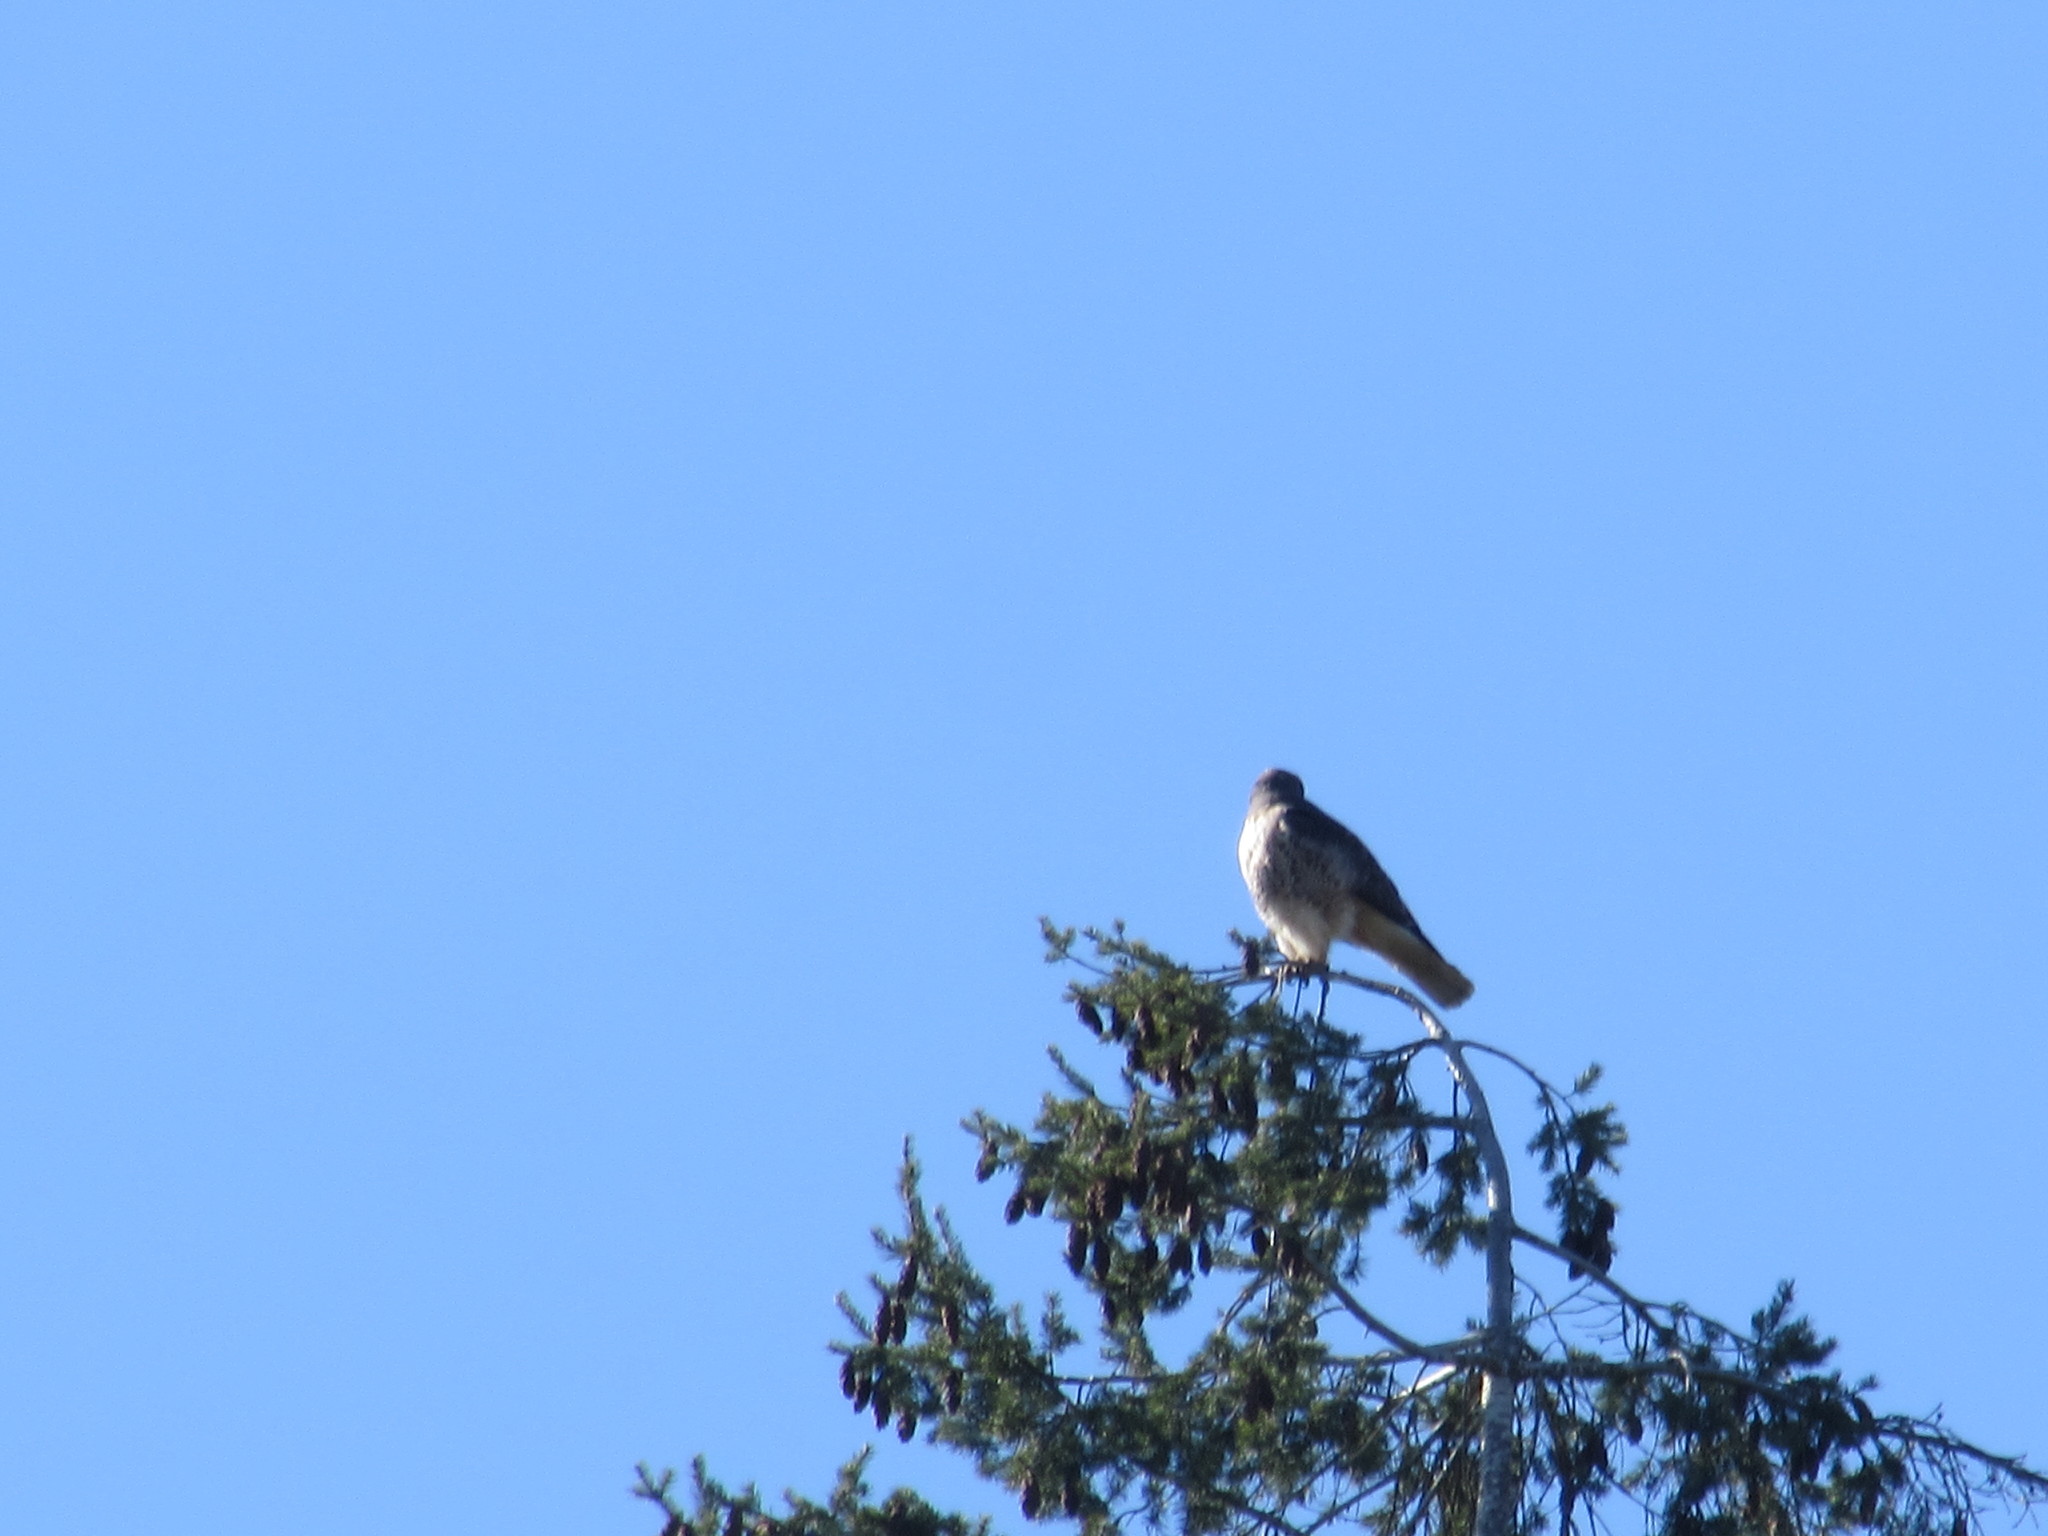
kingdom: Animalia
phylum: Chordata
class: Aves
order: Accipitriformes
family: Accipitridae
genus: Buteo
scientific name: Buteo jamaicensis
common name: Red-tailed hawk
